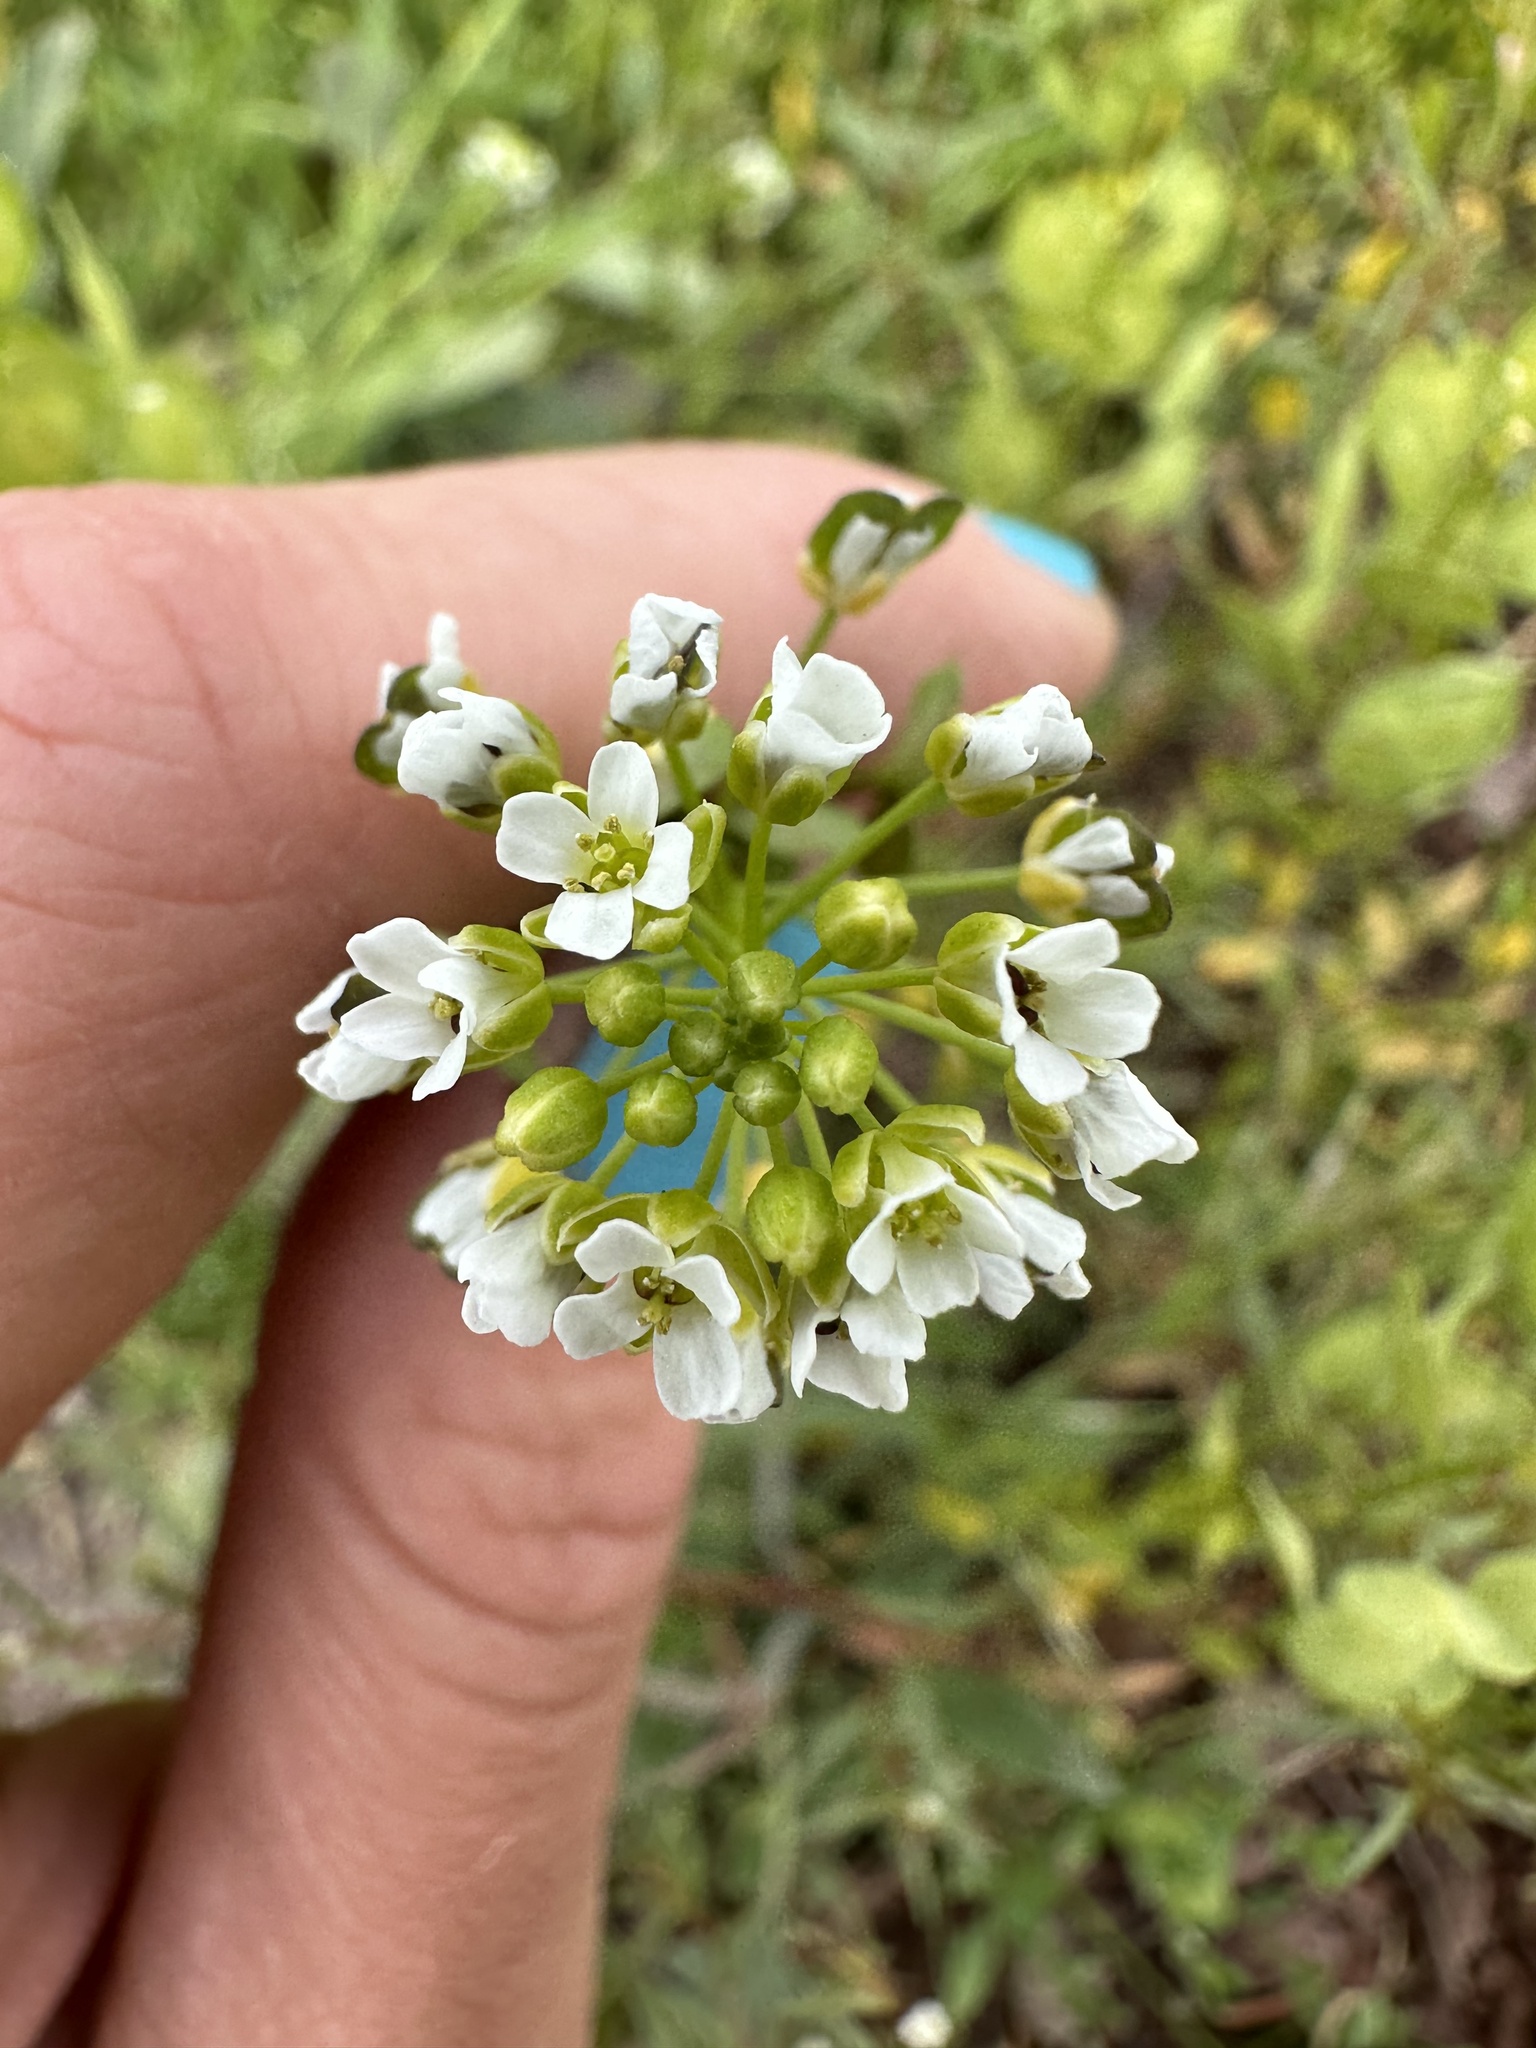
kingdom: Plantae
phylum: Tracheophyta
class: Magnoliopsida
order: Brassicales
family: Brassicaceae
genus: Thlaspi
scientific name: Thlaspi arvense
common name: Field pennycress
